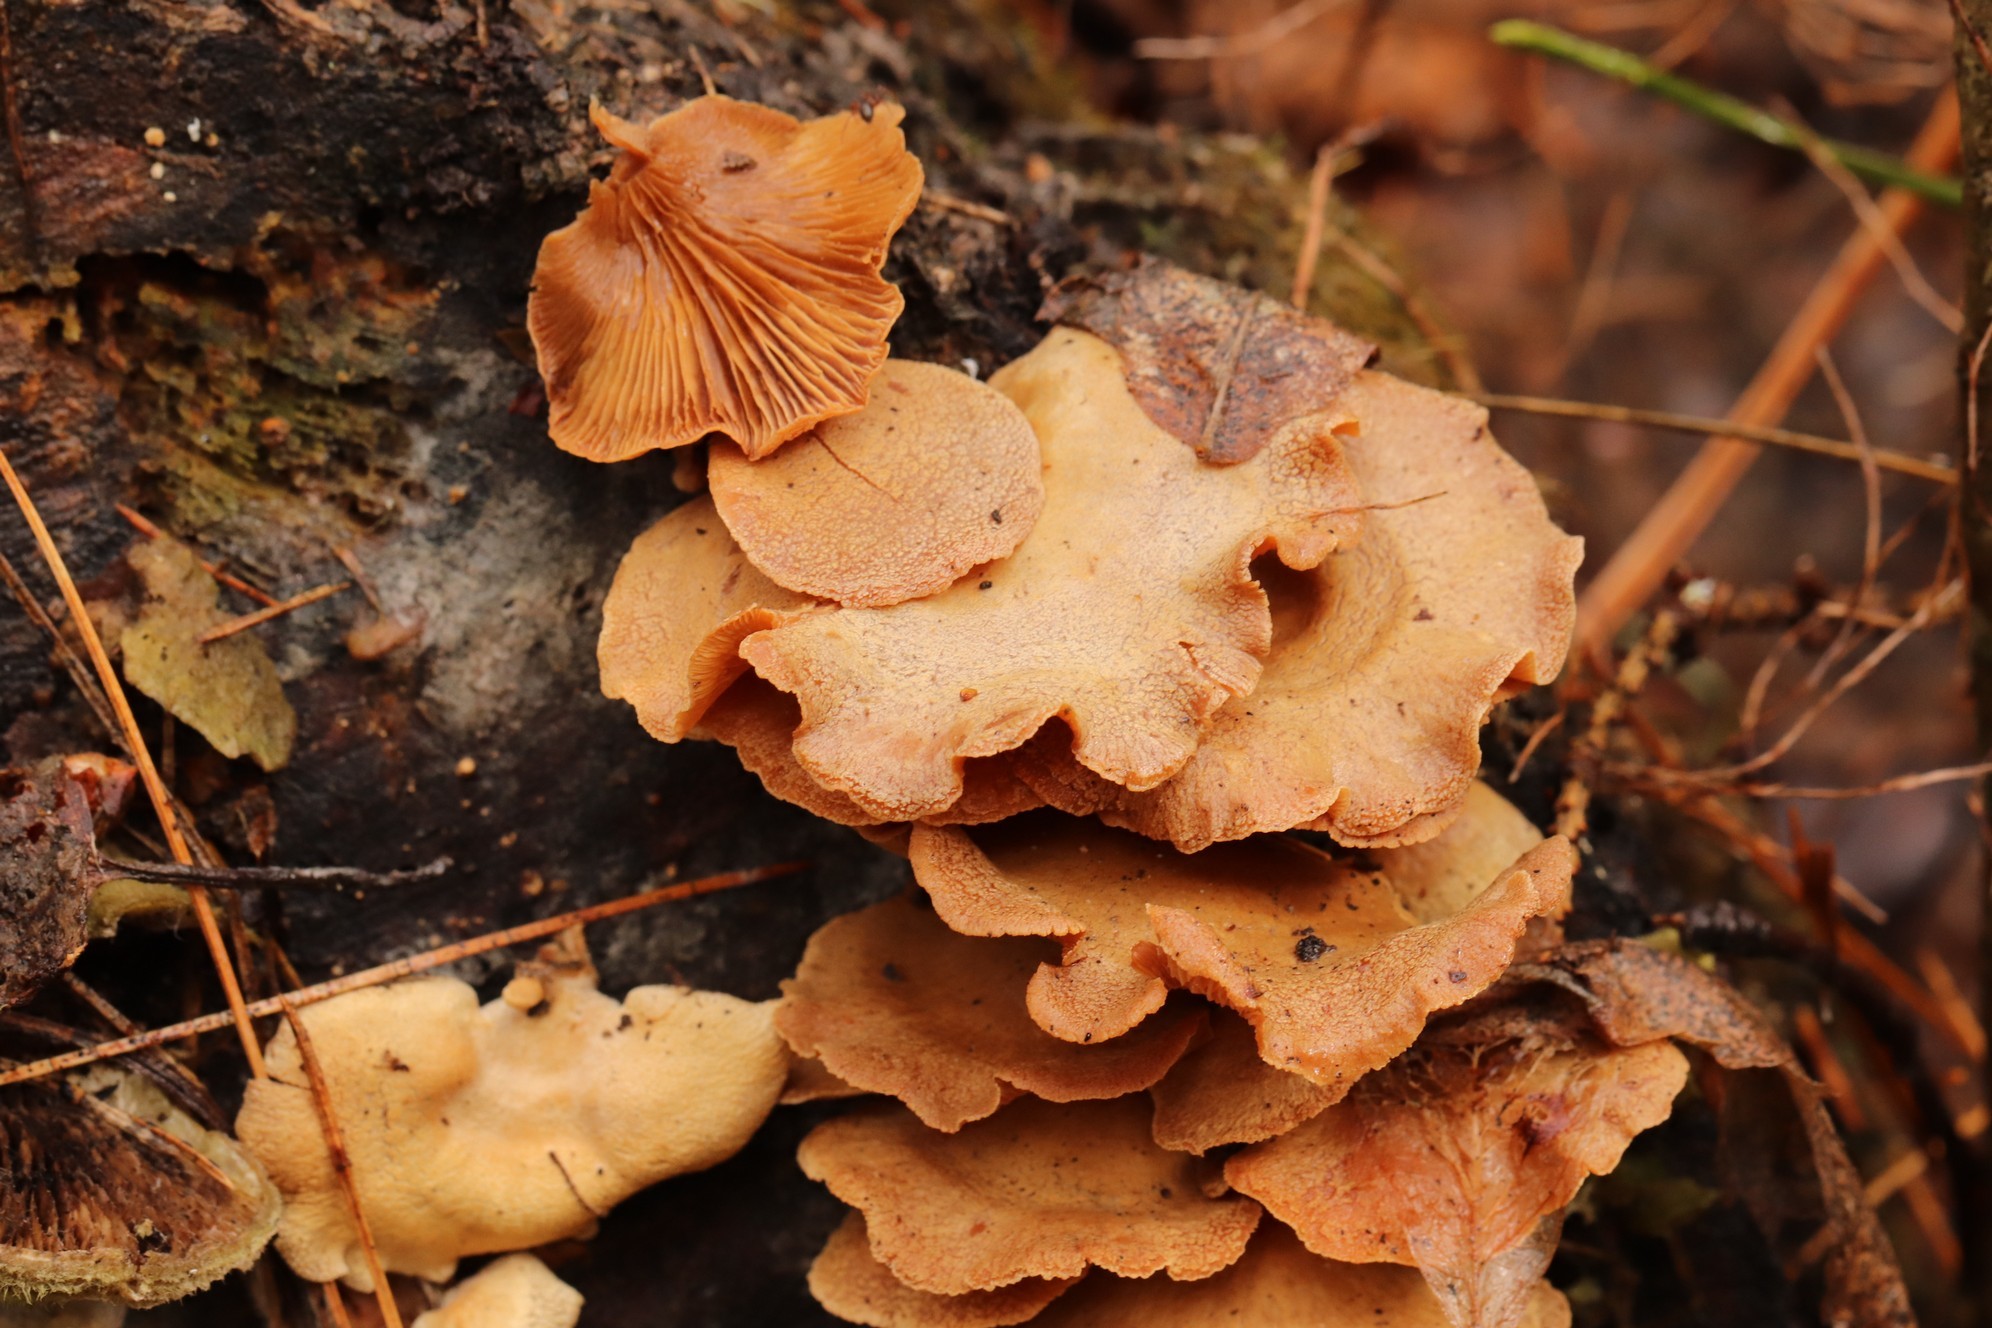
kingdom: Fungi
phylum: Basidiomycota
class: Agaricomycetes
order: Agaricales
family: Mycenaceae
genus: Panellus
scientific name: Panellus stipticus
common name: Bitter oysterling
